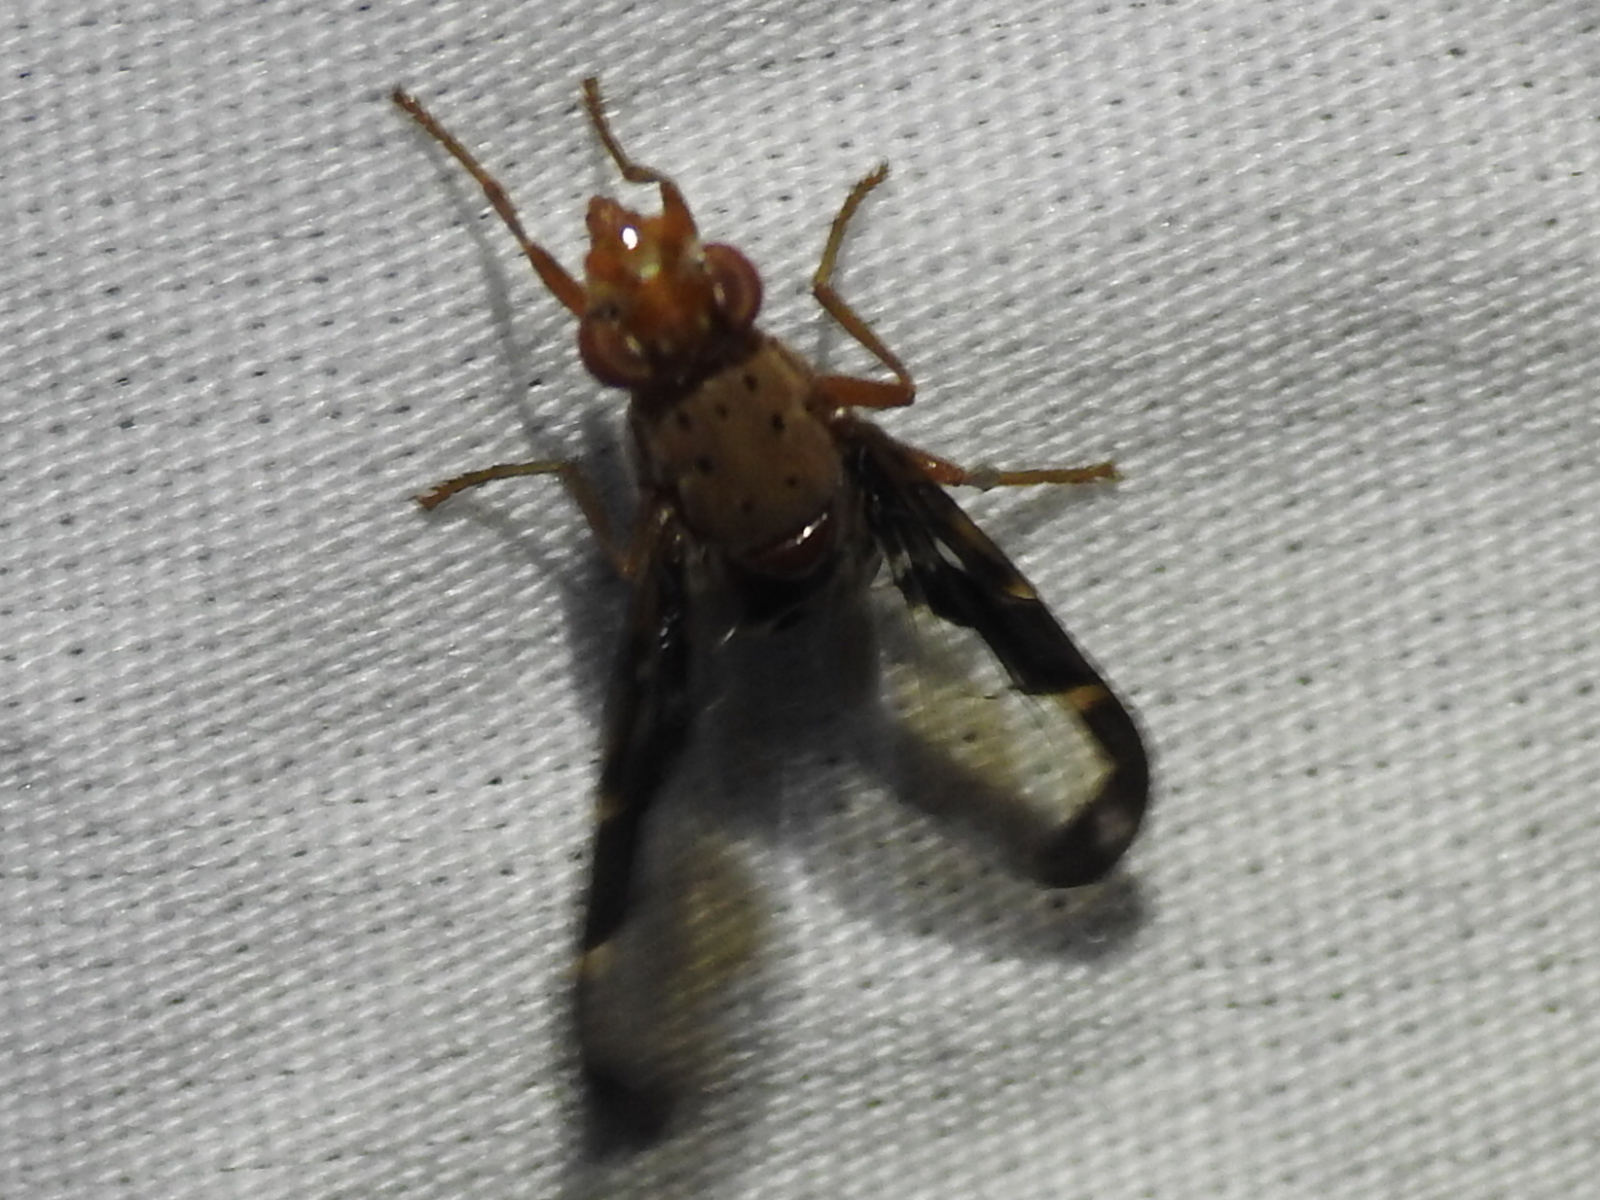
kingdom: Animalia
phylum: Arthropoda
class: Insecta
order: Diptera
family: Ulidiidae
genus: Diacrita
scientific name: Diacrita costalis
